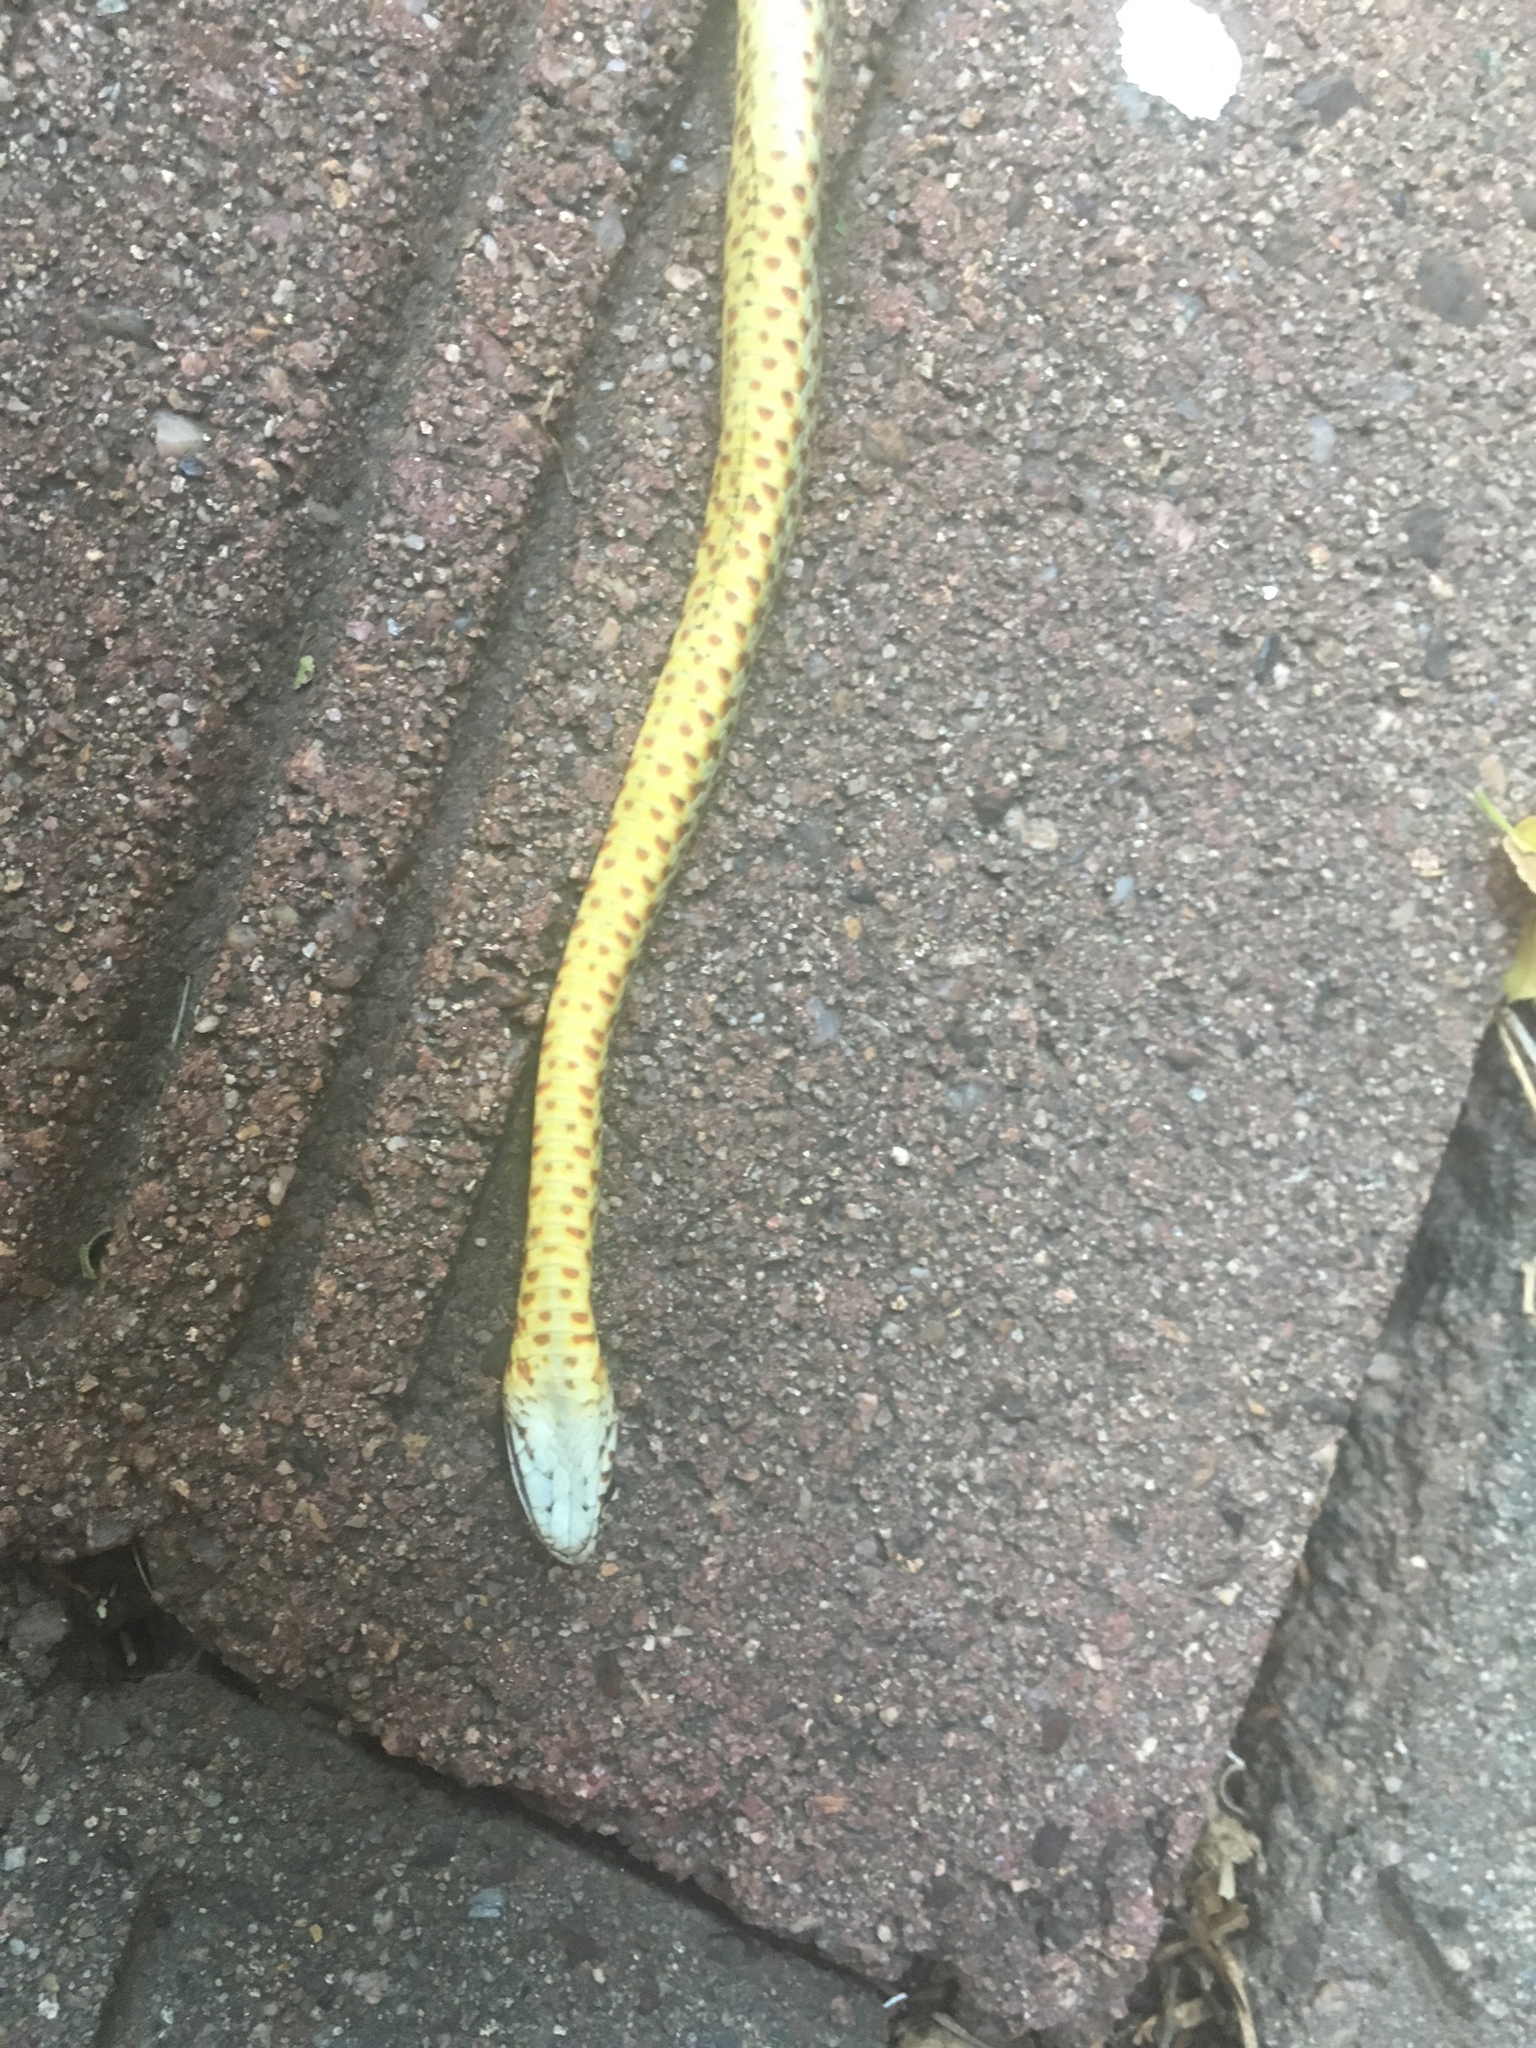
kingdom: Animalia
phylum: Chordata
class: Squamata
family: Colubridae
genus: Coluber
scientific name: Coluber constrictor
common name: Eastern racer
